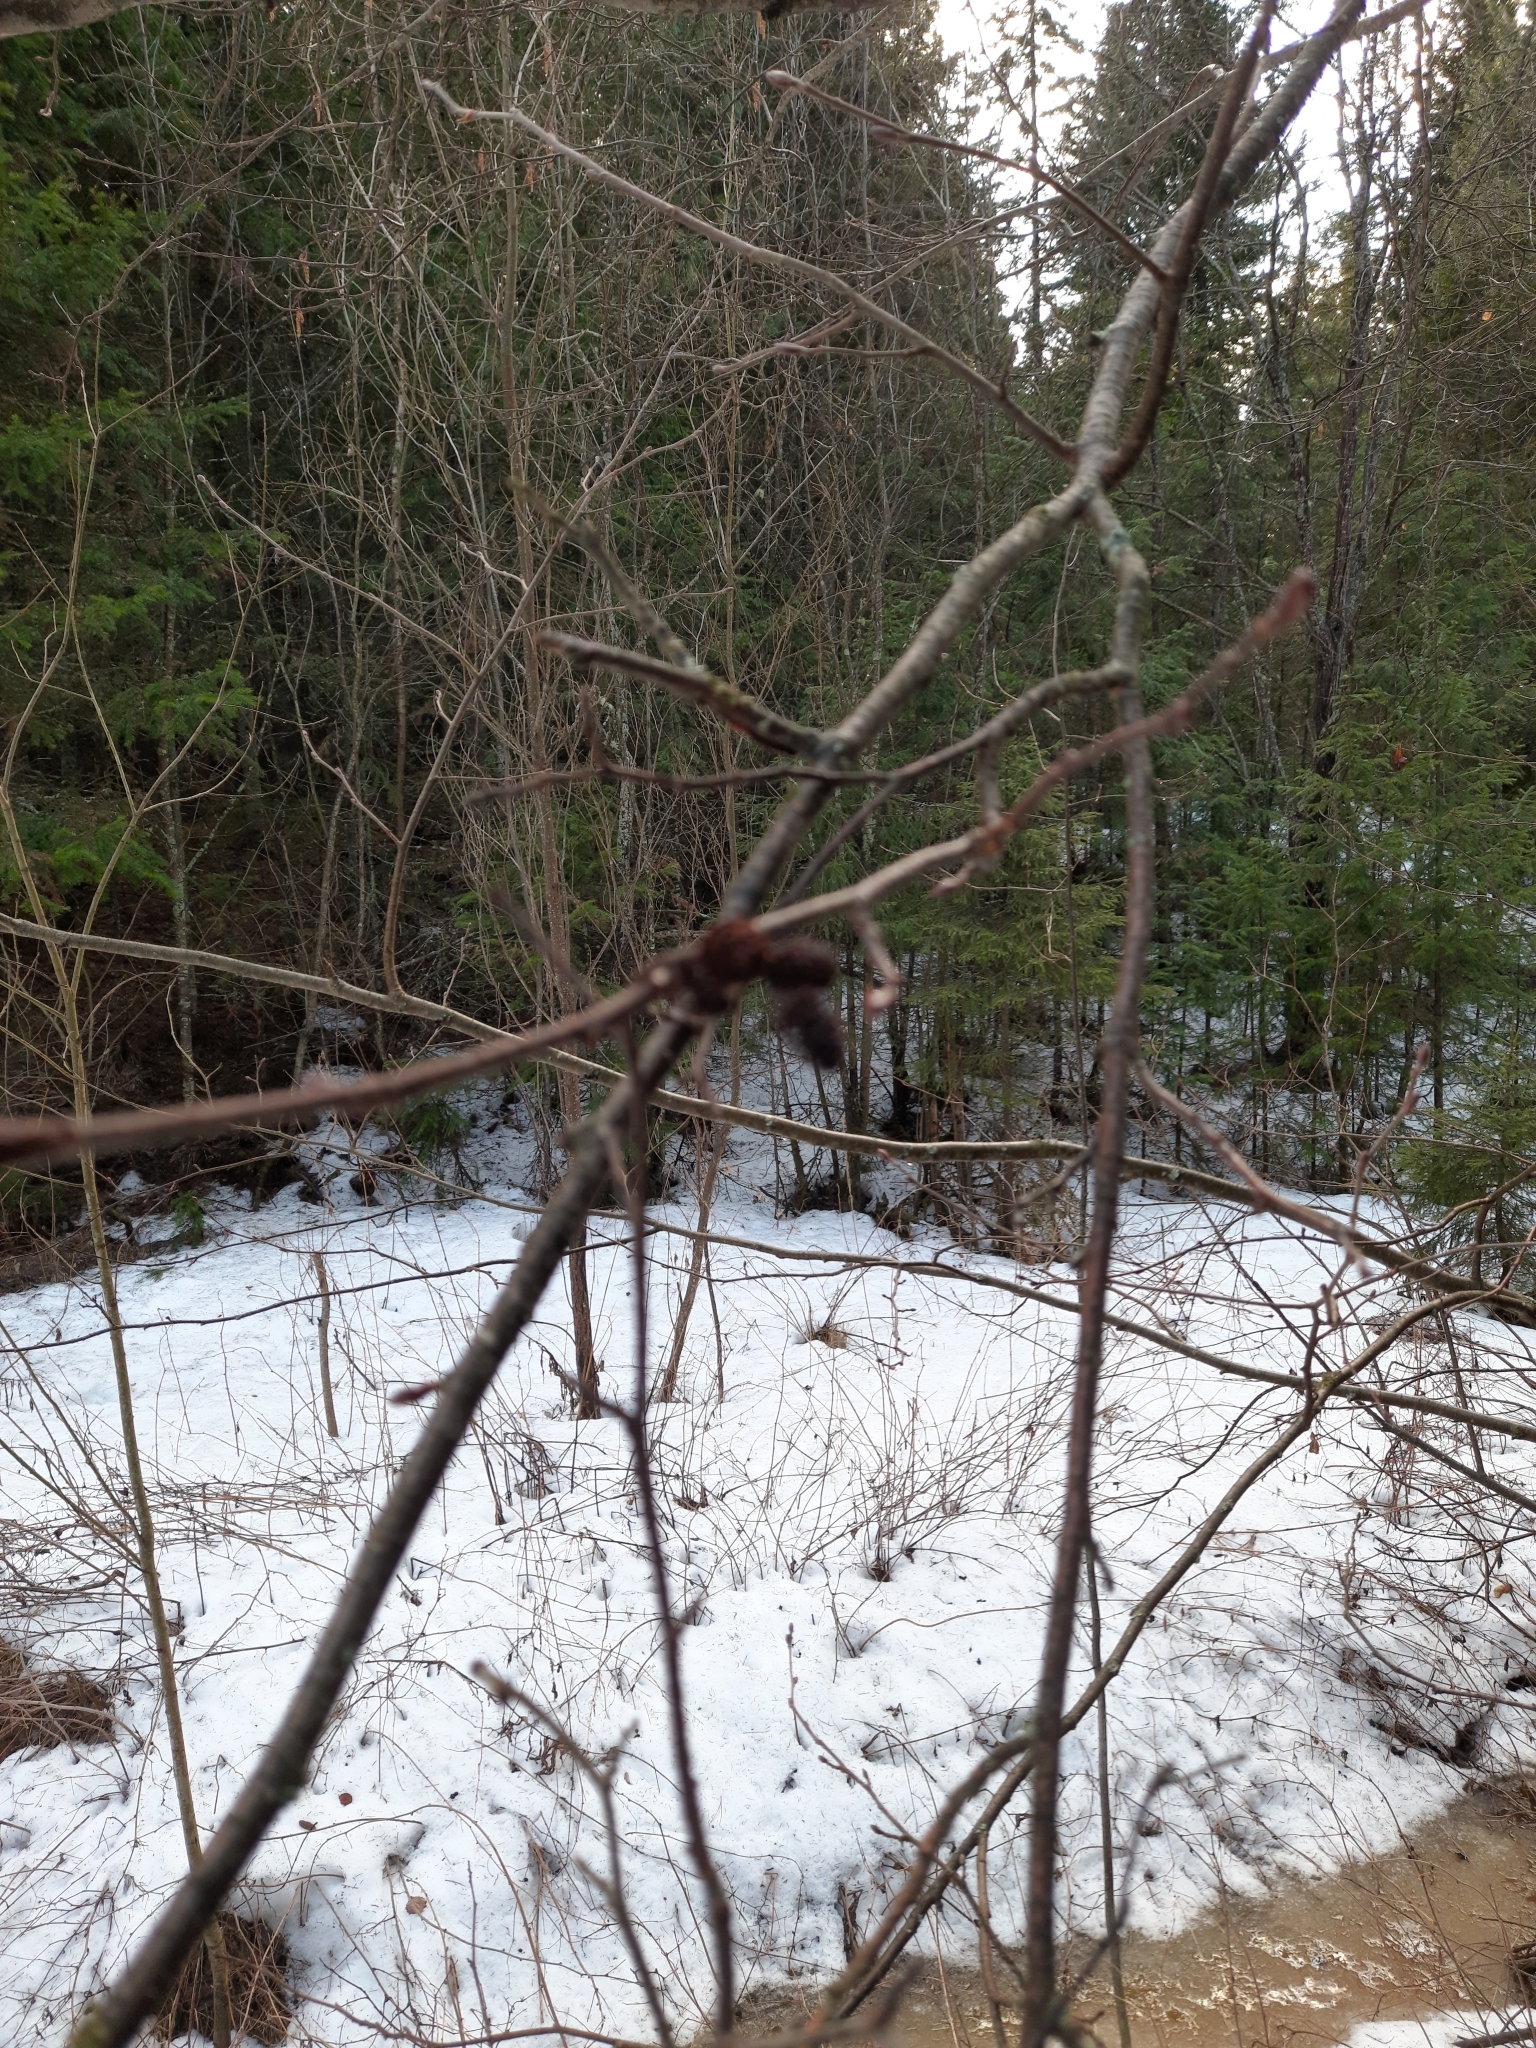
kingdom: Plantae
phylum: Tracheophyta
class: Magnoliopsida
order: Fagales
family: Betulaceae
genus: Alnus
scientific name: Alnus incana
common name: Grey alder
